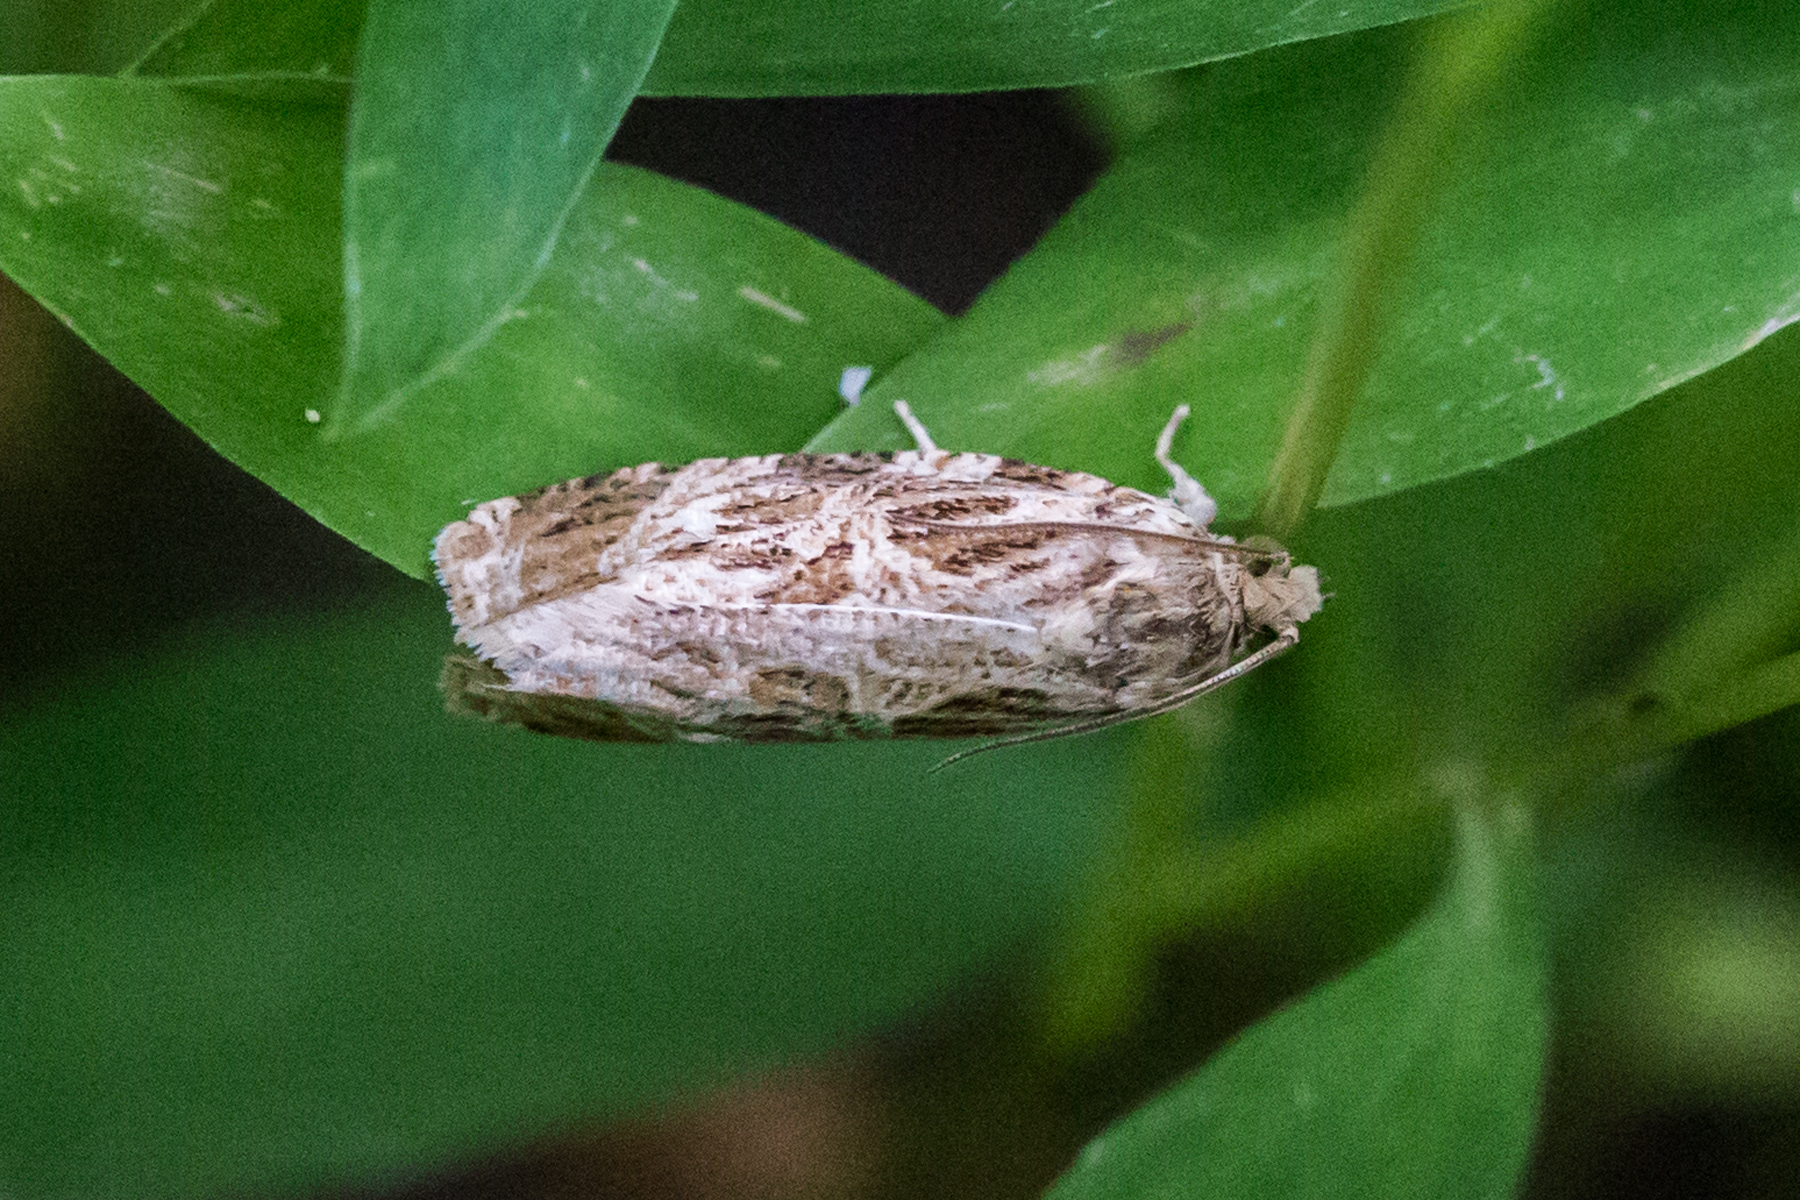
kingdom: Animalia
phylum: Arthropoda
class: Insecta
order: Lepidoptera
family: Tortricidae
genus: Phaecasiophora
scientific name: Phaecasiophora confixana
